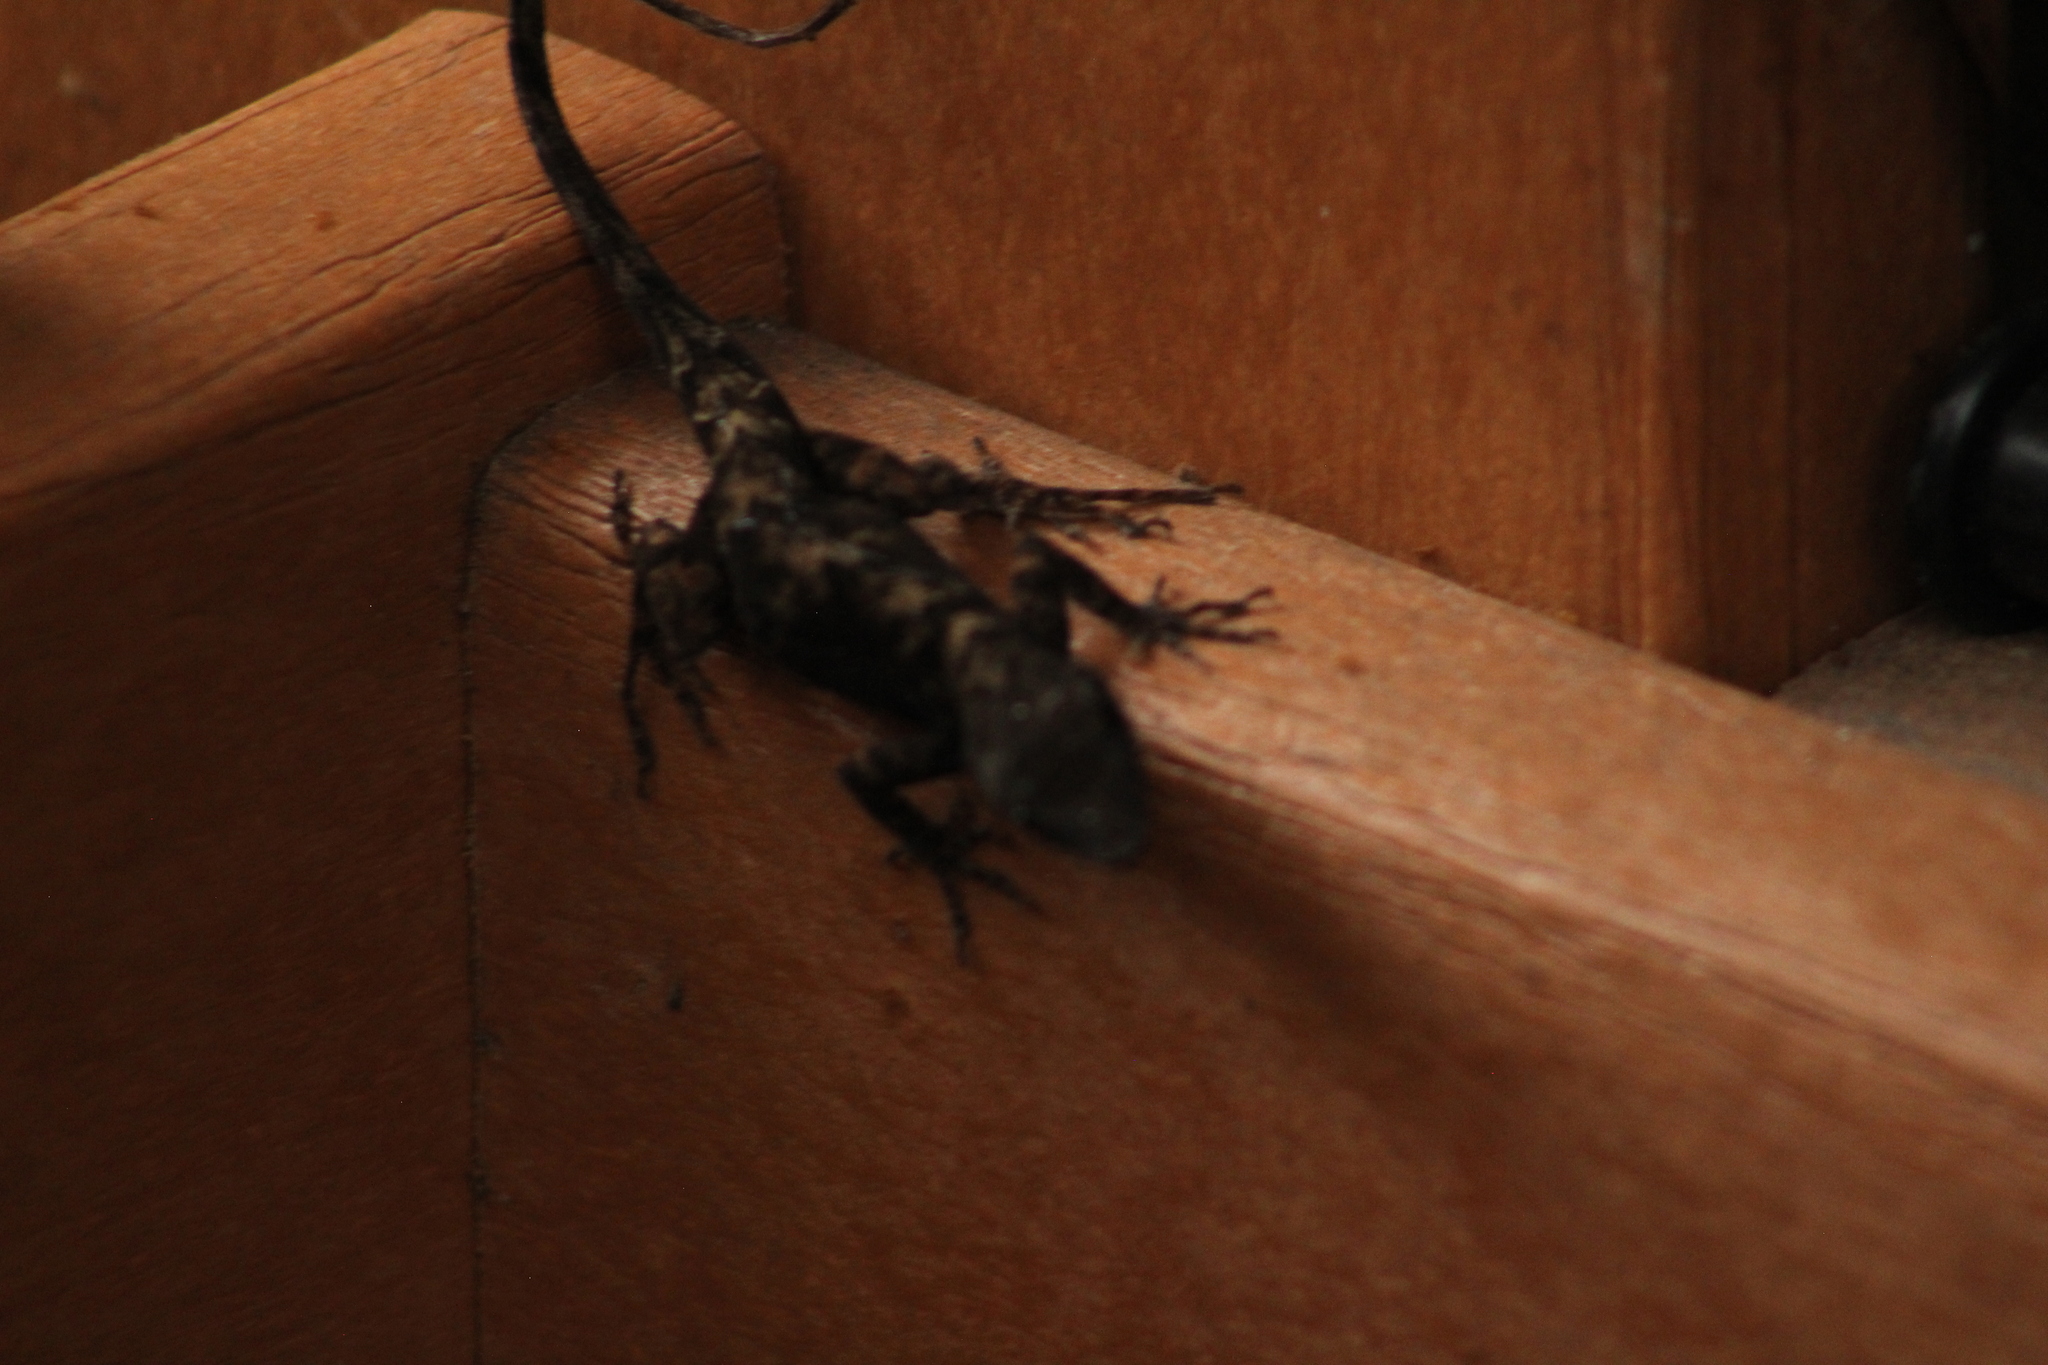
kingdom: Animalia
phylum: Chordata
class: Squamata
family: Dactyloidae
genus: Anolis
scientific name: Anolis
